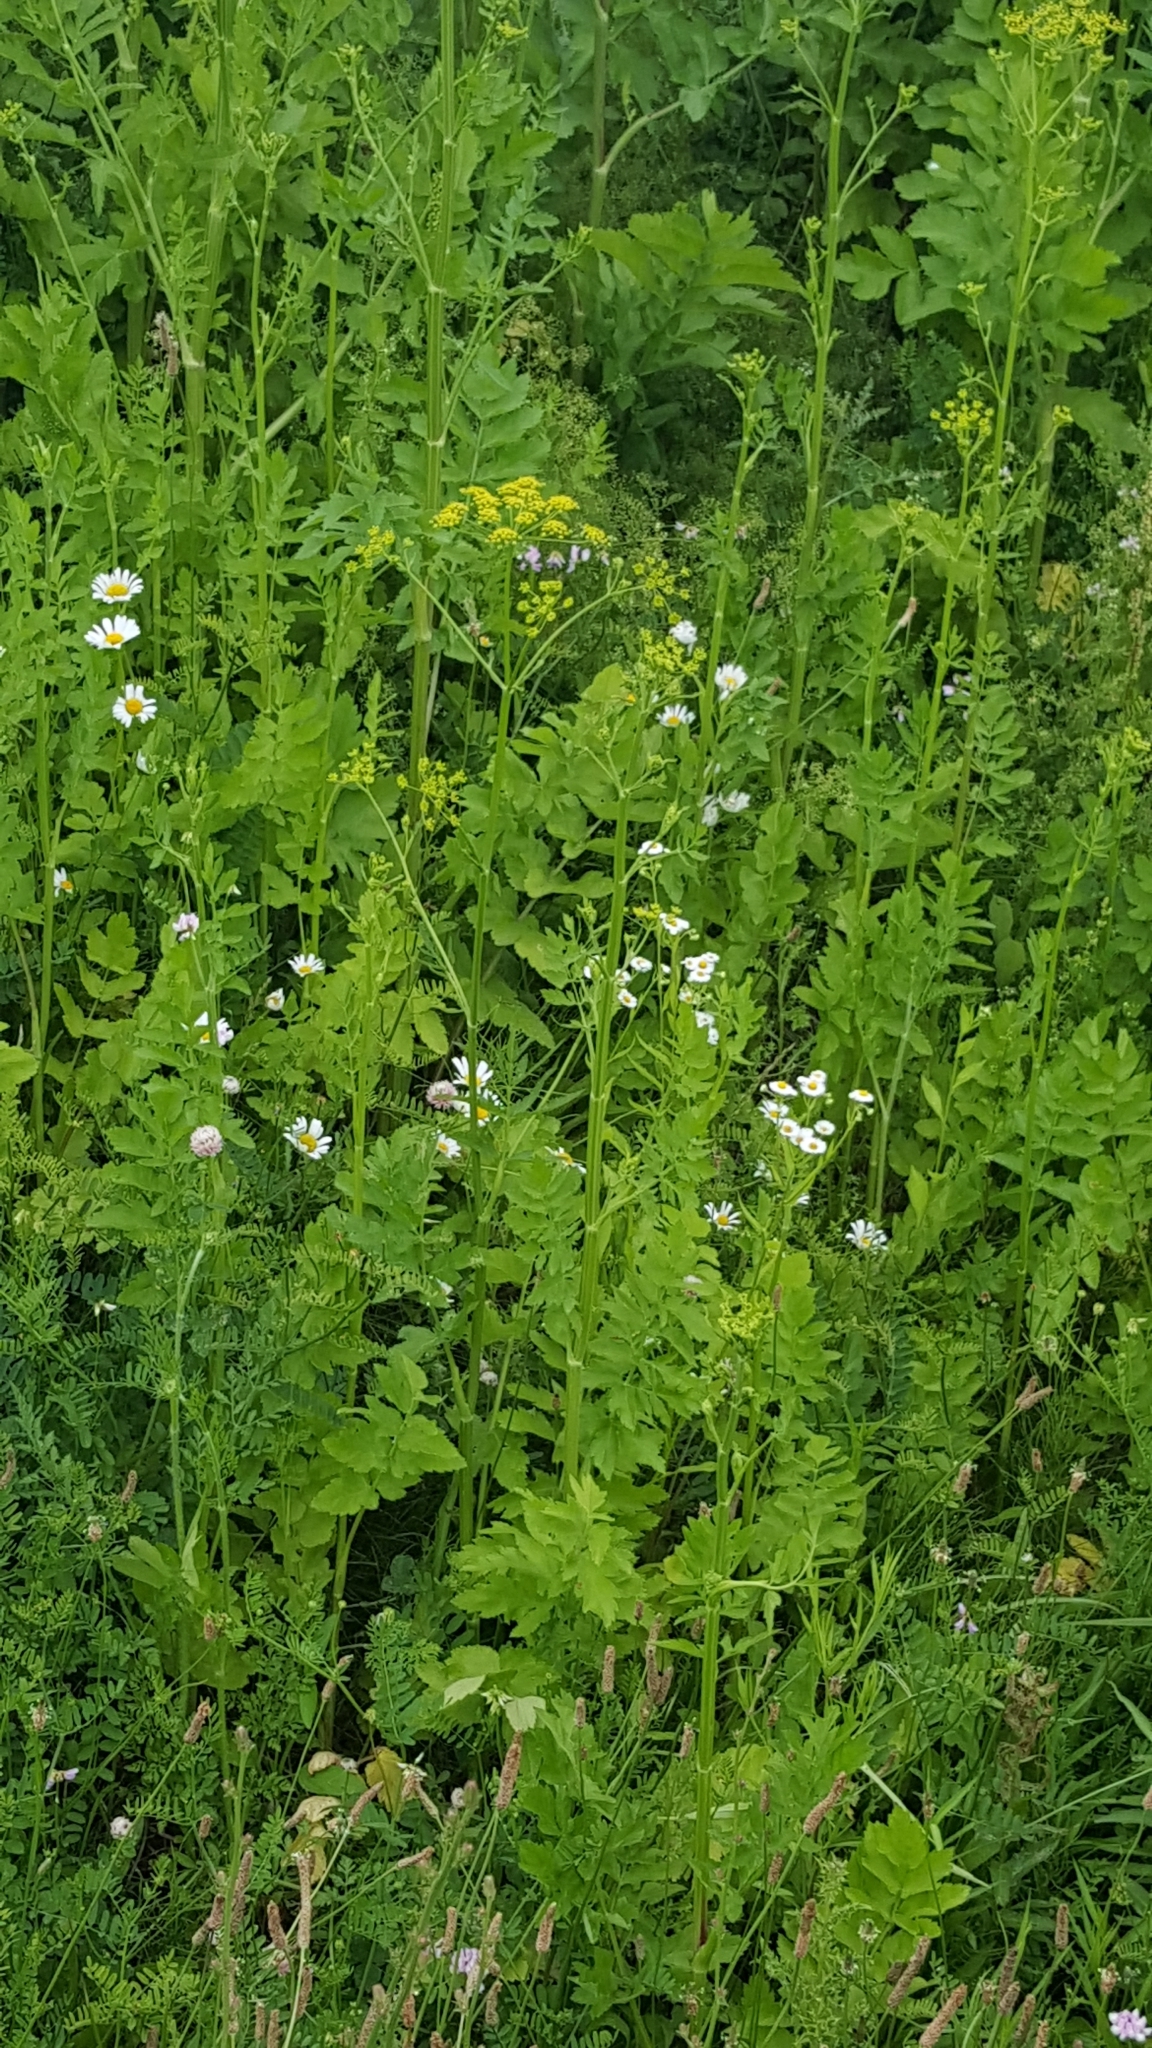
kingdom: Plantae
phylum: Tracheophyta
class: Magnoliopsida
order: Apiales
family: Apiaceae
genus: Pastinaca
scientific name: Pastinaca sativa
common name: Wild parsnip
